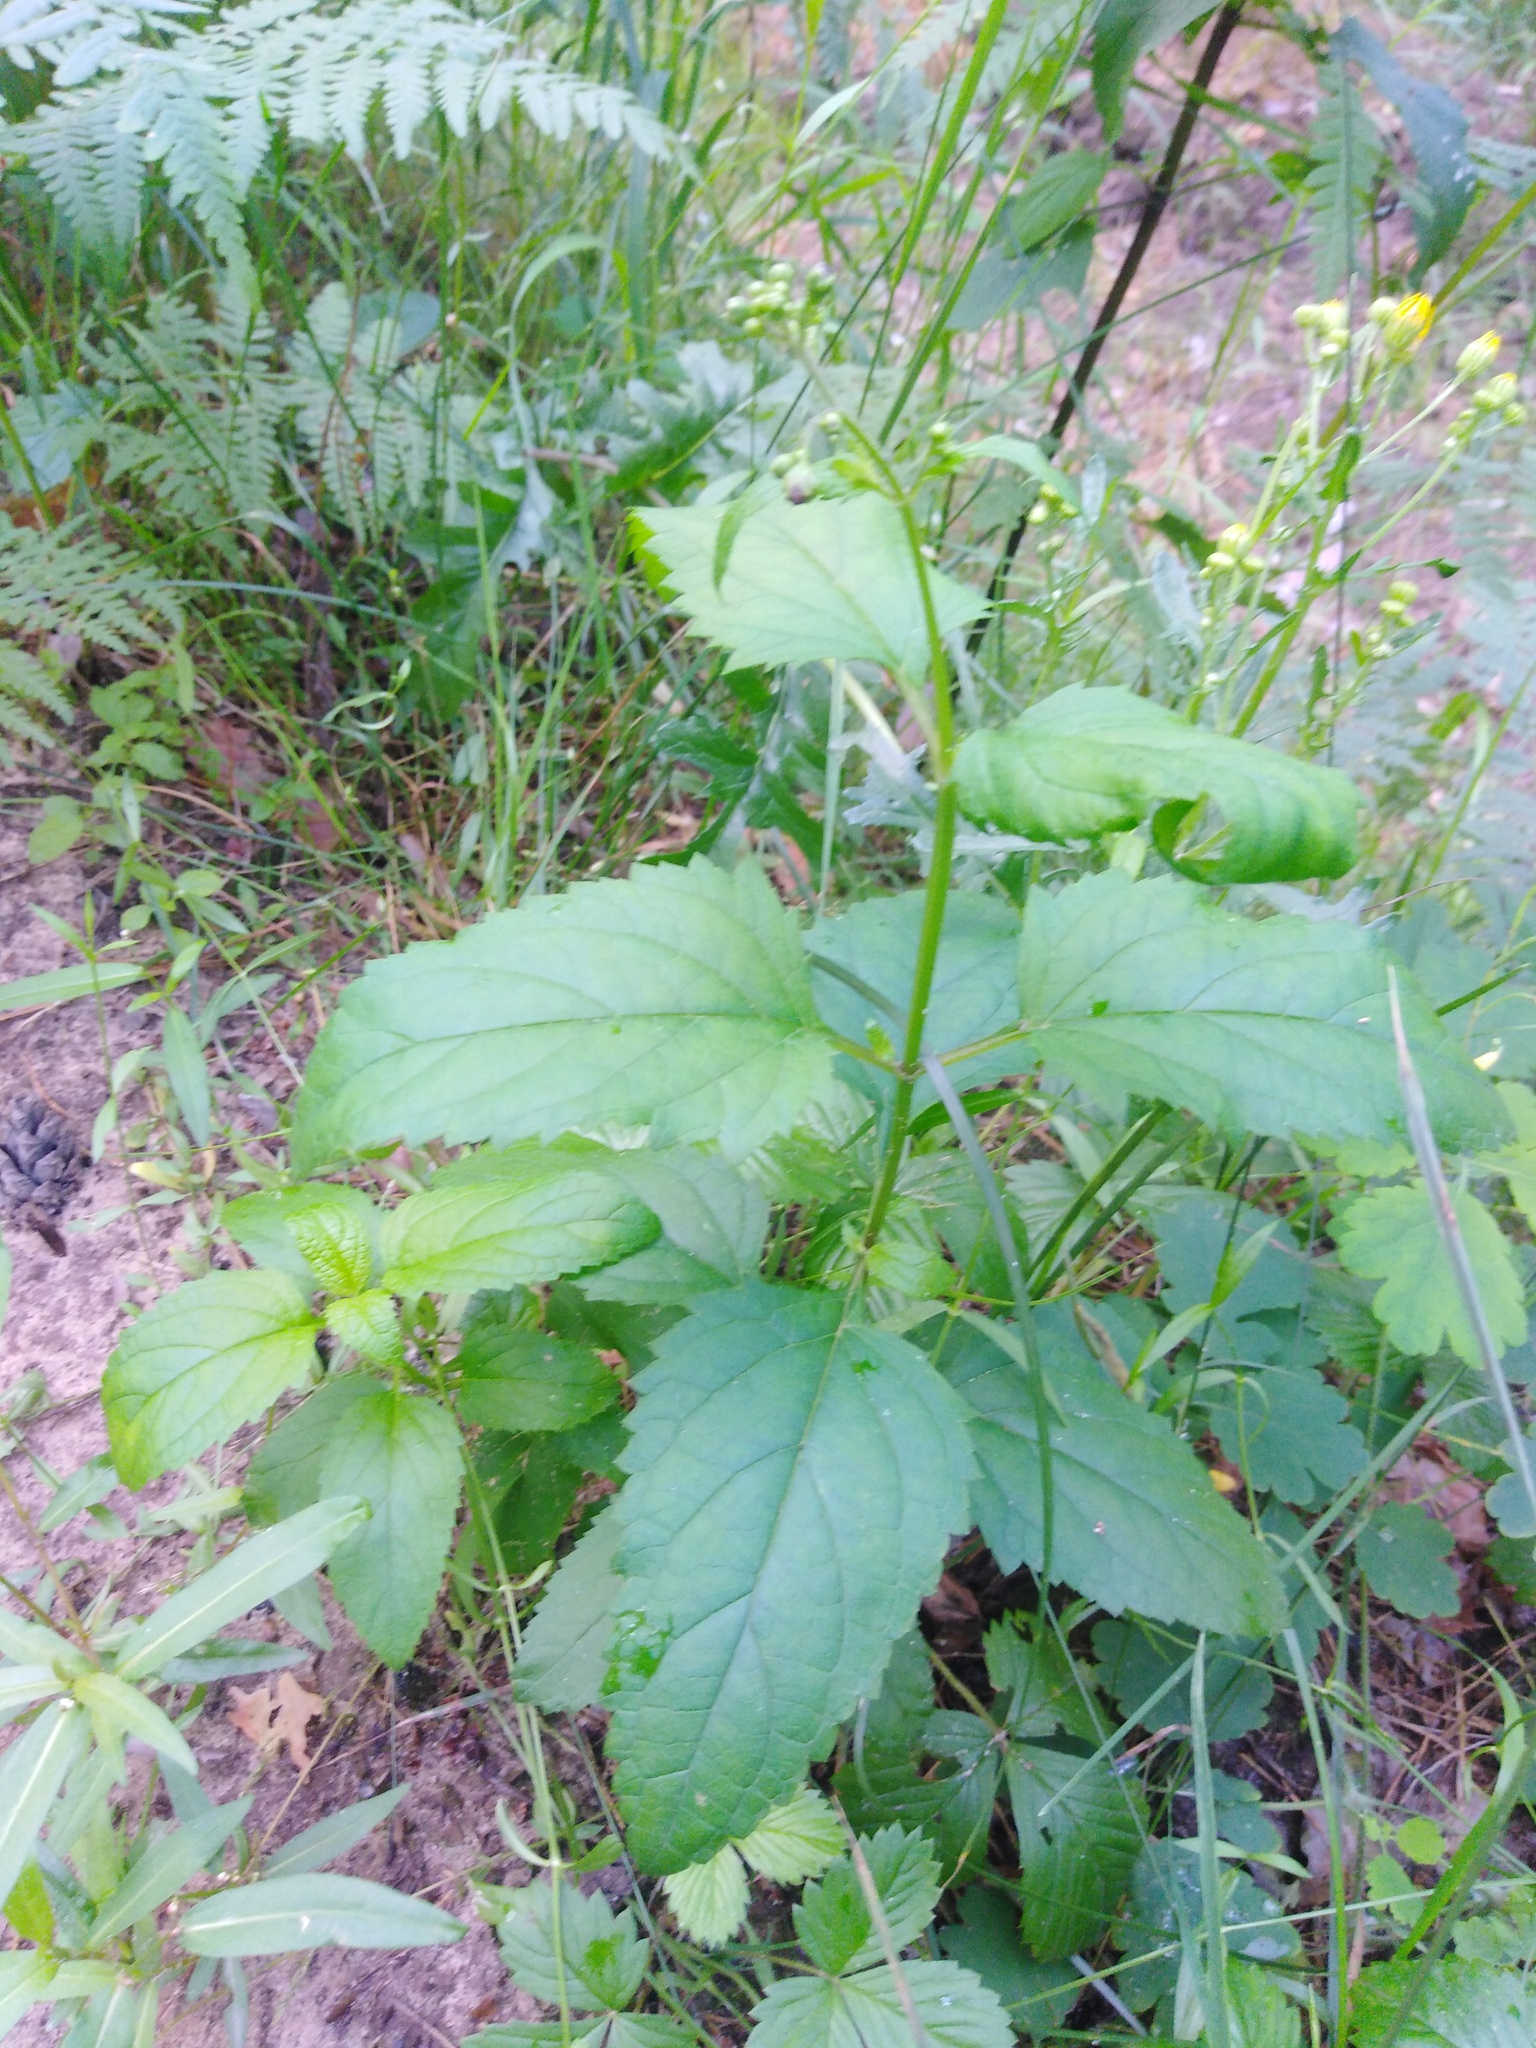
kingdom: Plantae
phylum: Tracheophyta
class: Magnoliopsida
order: Lamiales
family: Scrophulariaceae
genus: Scrophularia
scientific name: Scrophularia nodosa
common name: Common figwort
